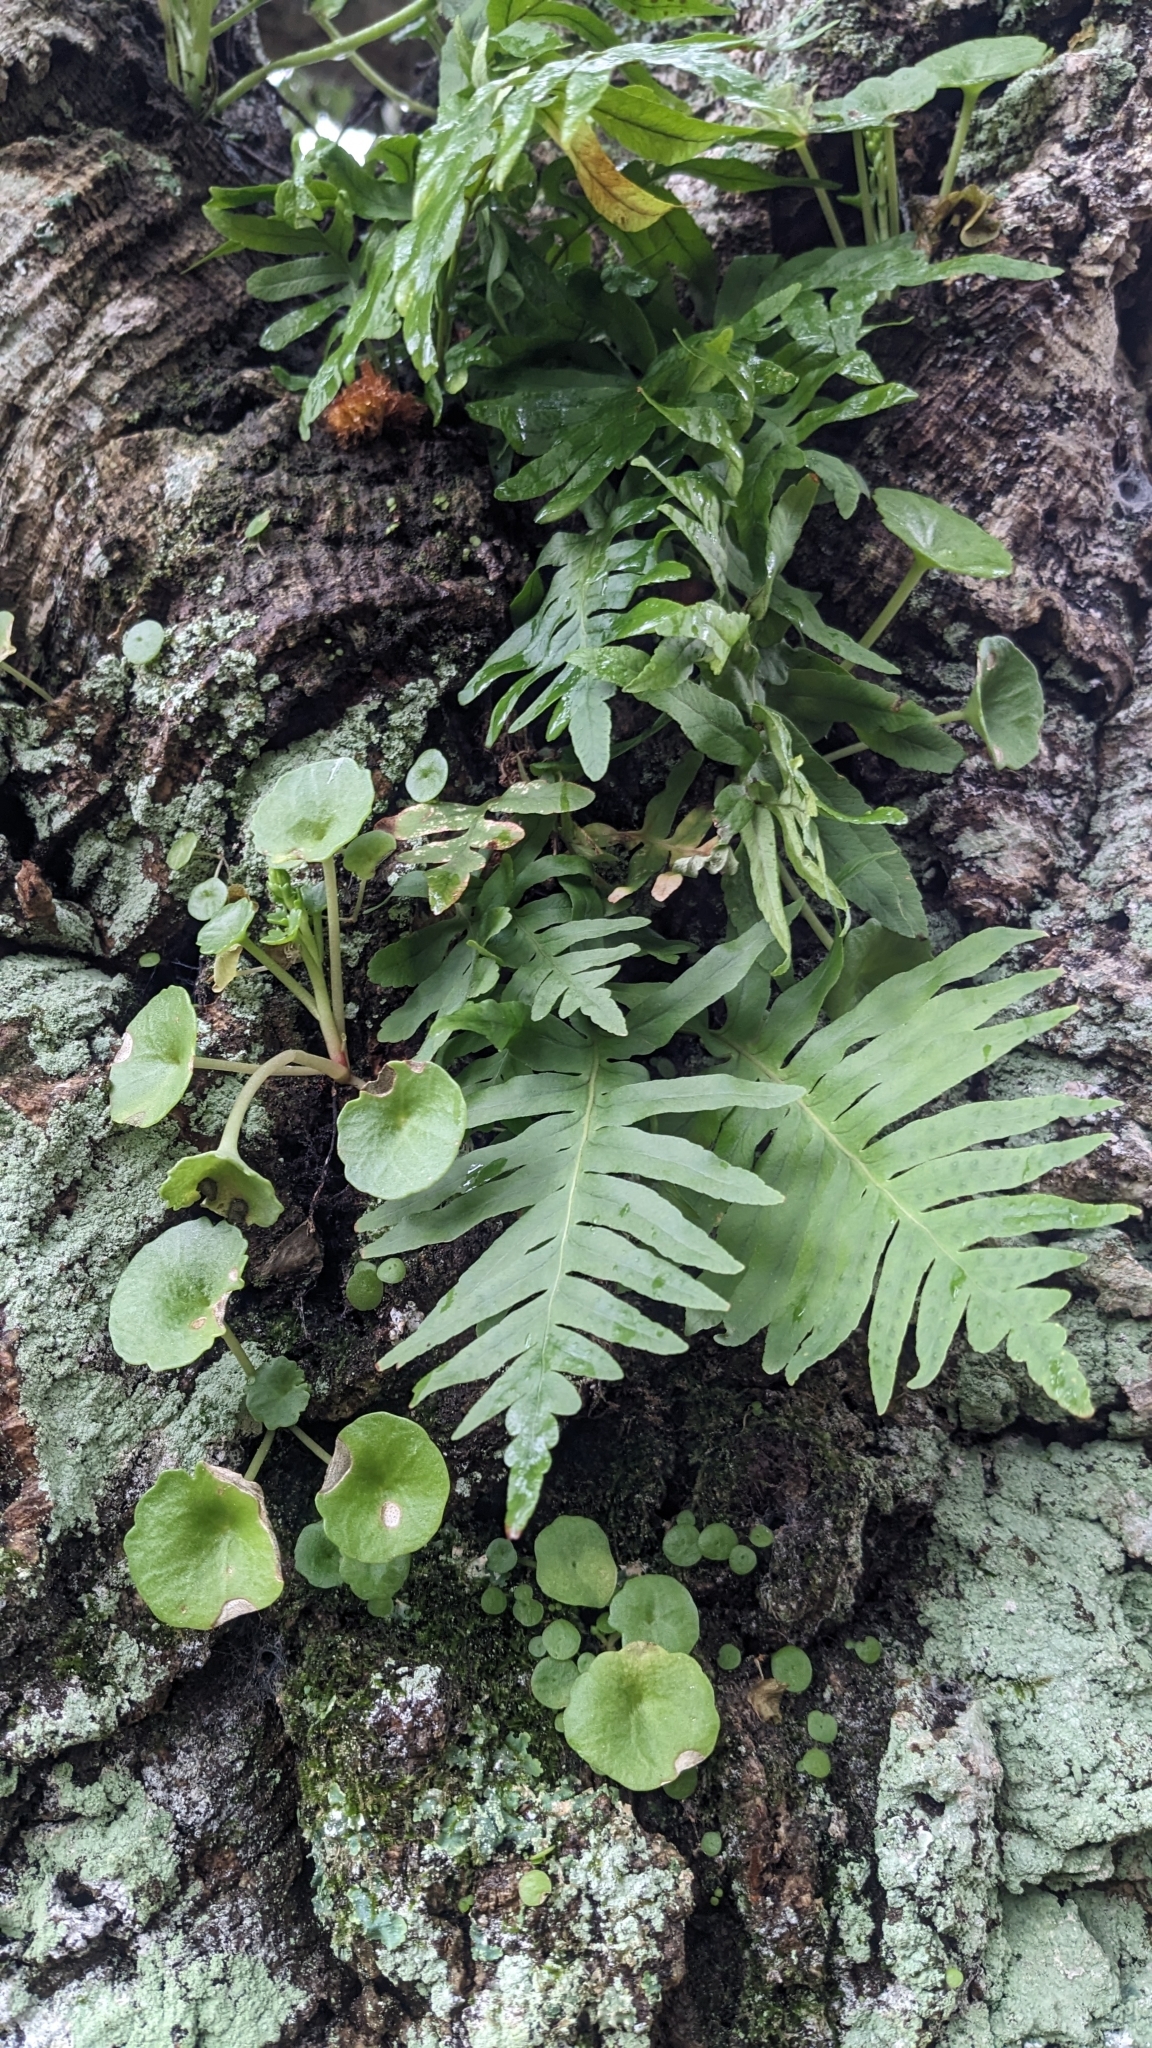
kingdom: Plantae
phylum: Tracheophyta
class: Polypodiopsida
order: Polypodiales
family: Polypodiaceae
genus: Polypodium
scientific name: Polypodium cambricum
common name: Southern polypody
